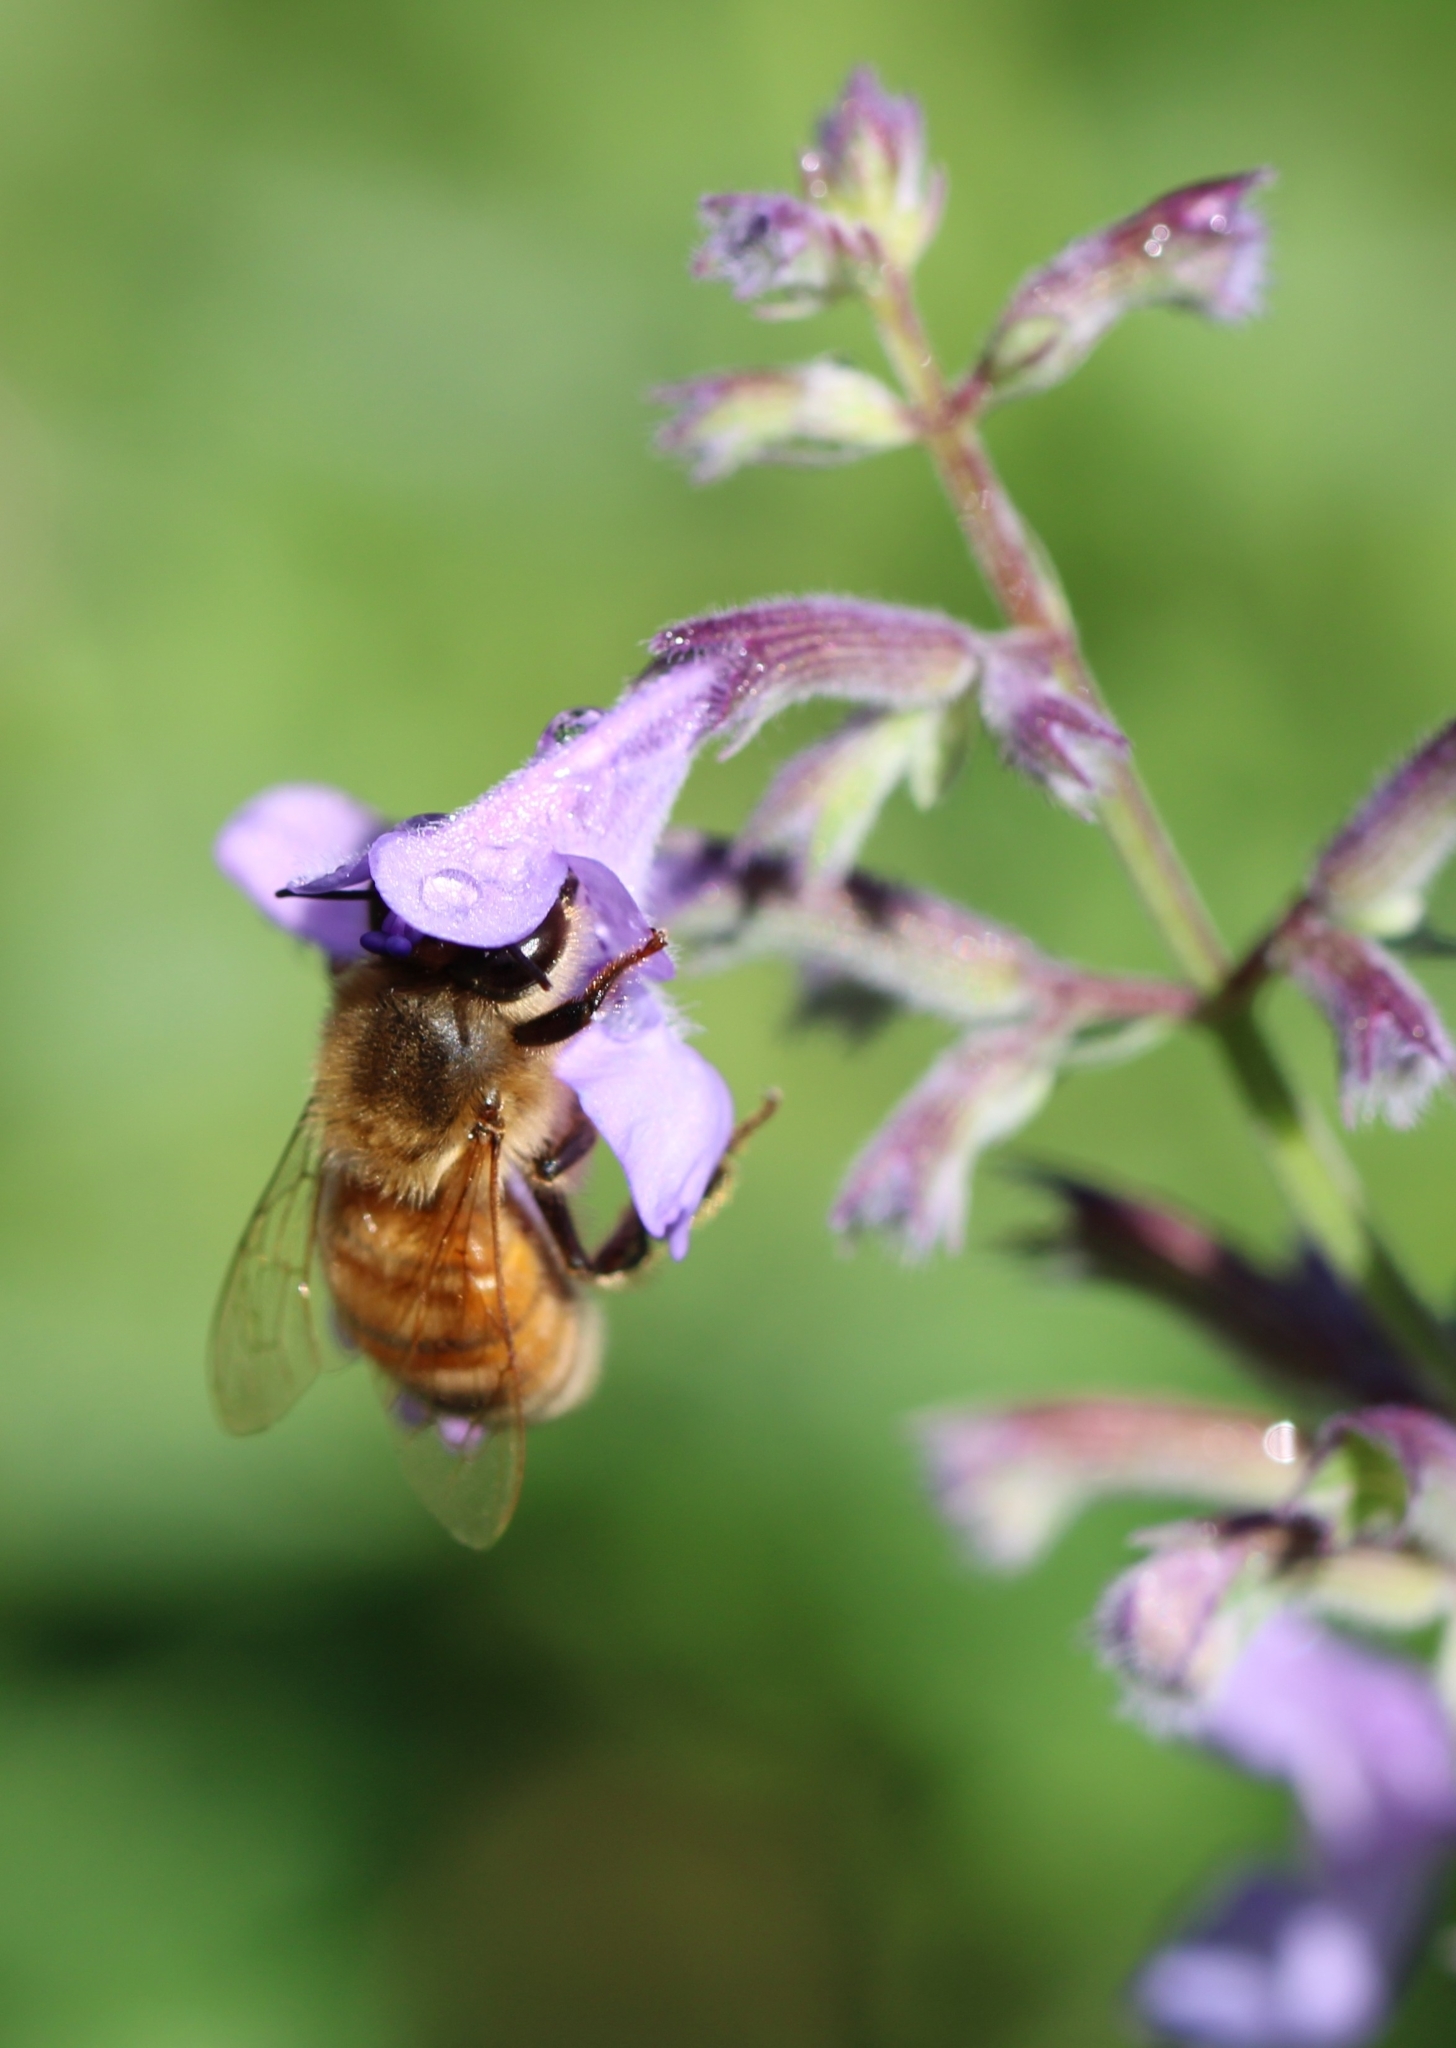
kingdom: Animalia
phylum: Arthropoda
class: Insecta
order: Hymenoptera
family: Apidae
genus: Apis
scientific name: Apis mellifera
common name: Honey bee
